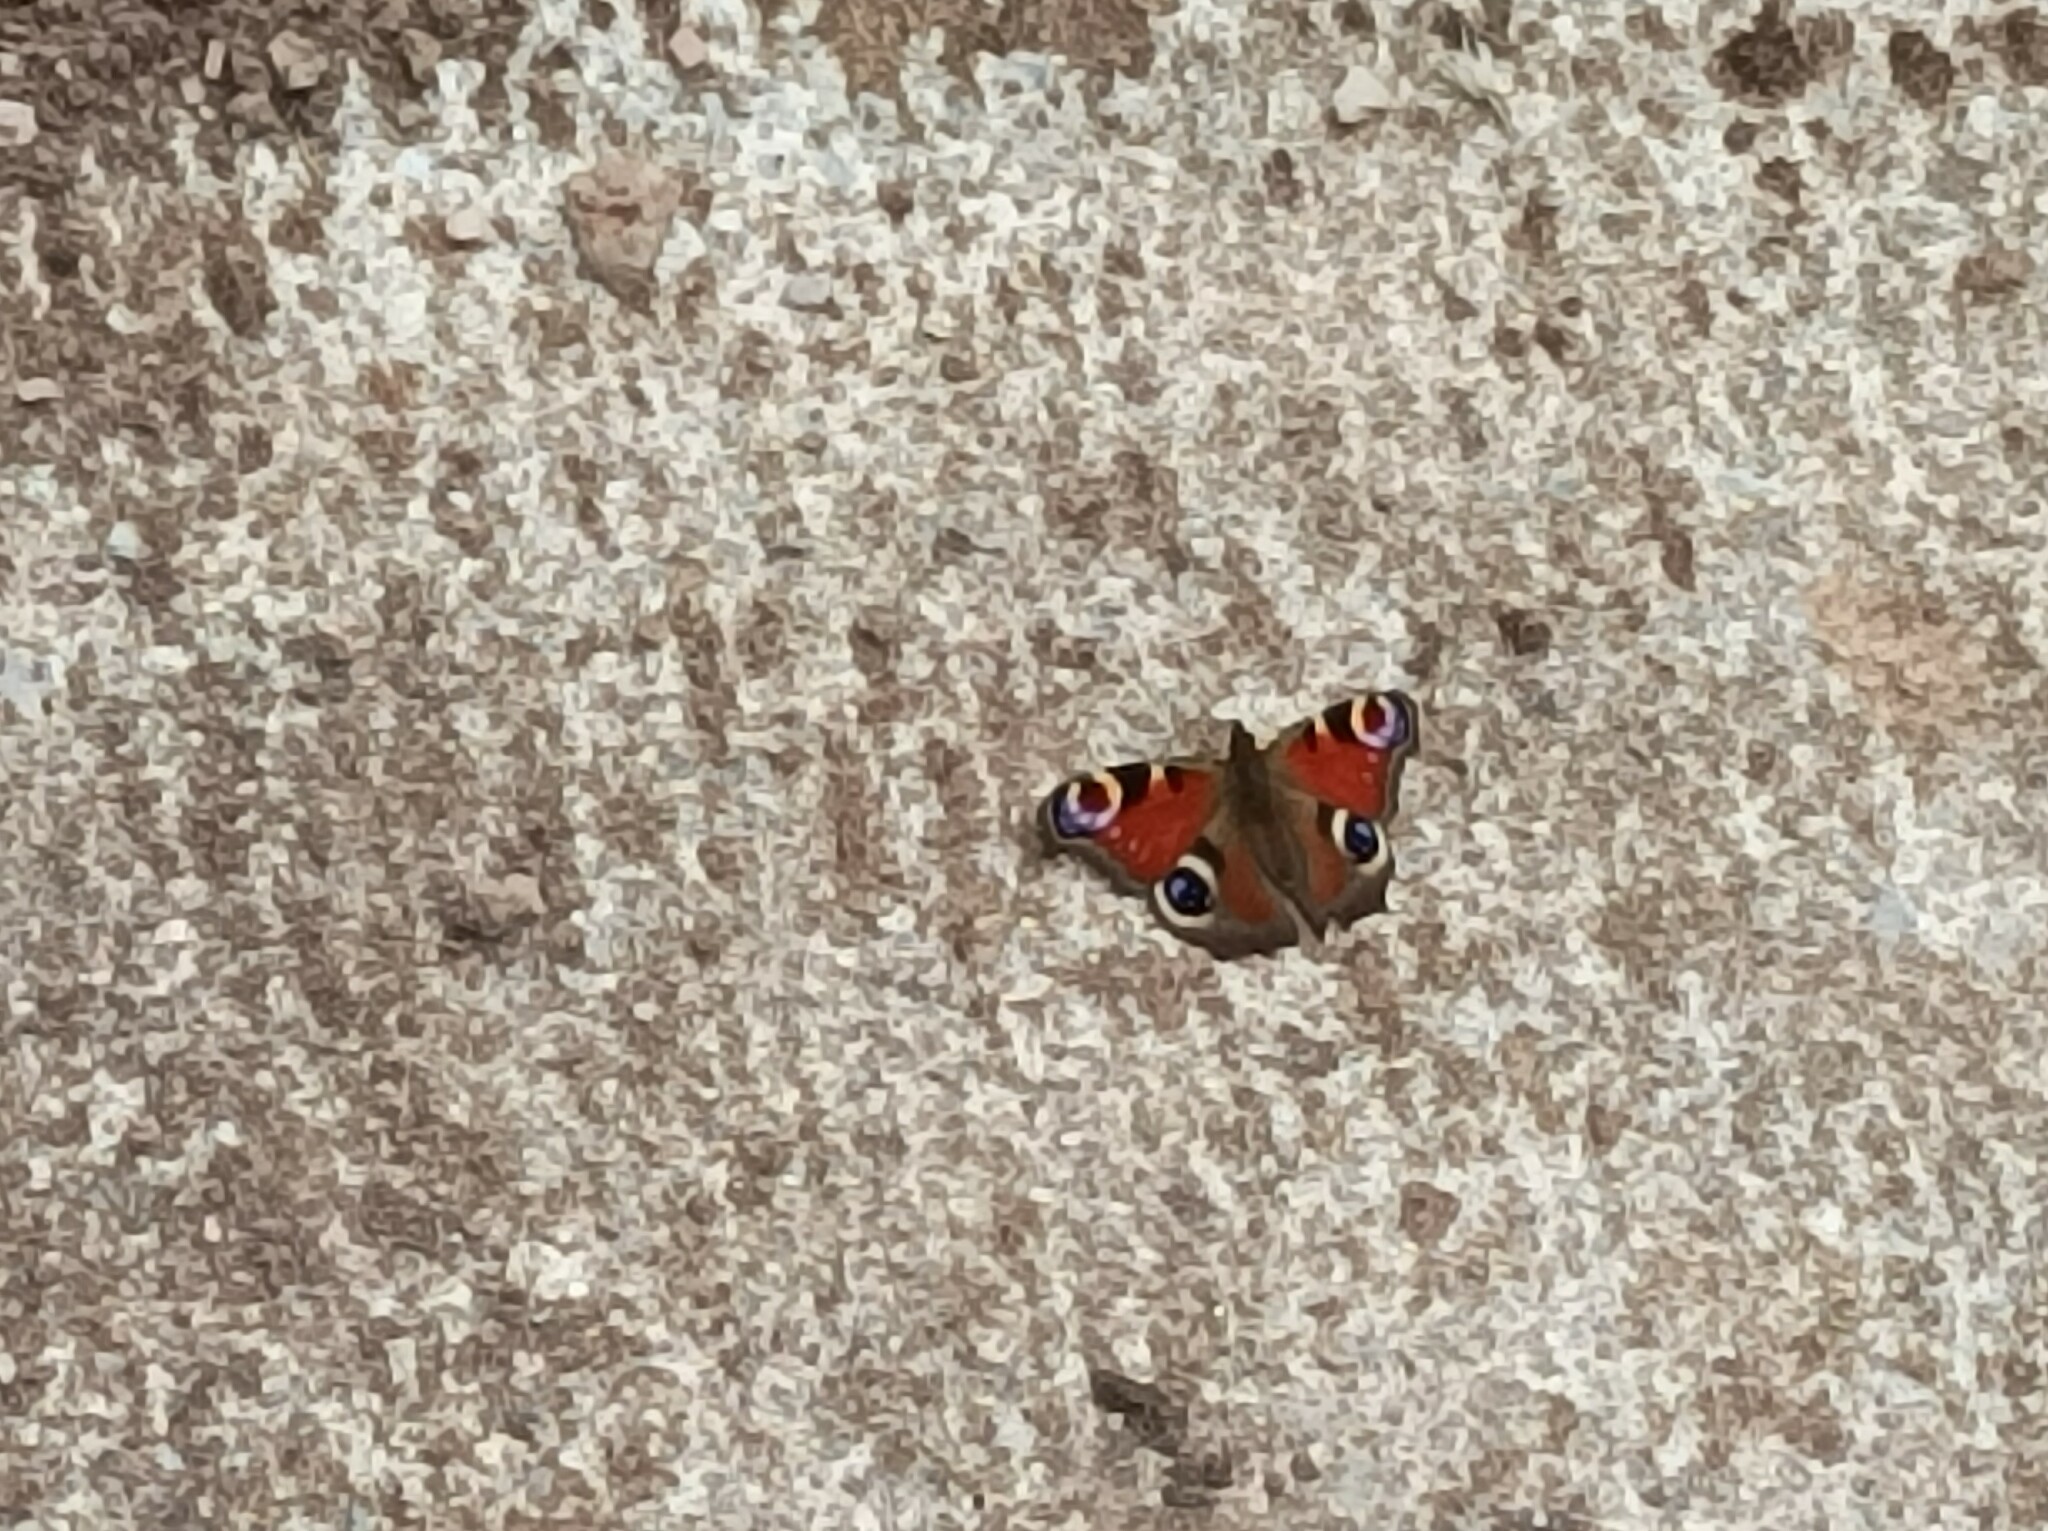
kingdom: Animalia
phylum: Arthropoda
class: Insecta
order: Lepidoptera
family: Nymphalidae
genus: Aglais
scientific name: Aglais io
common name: Peacock
